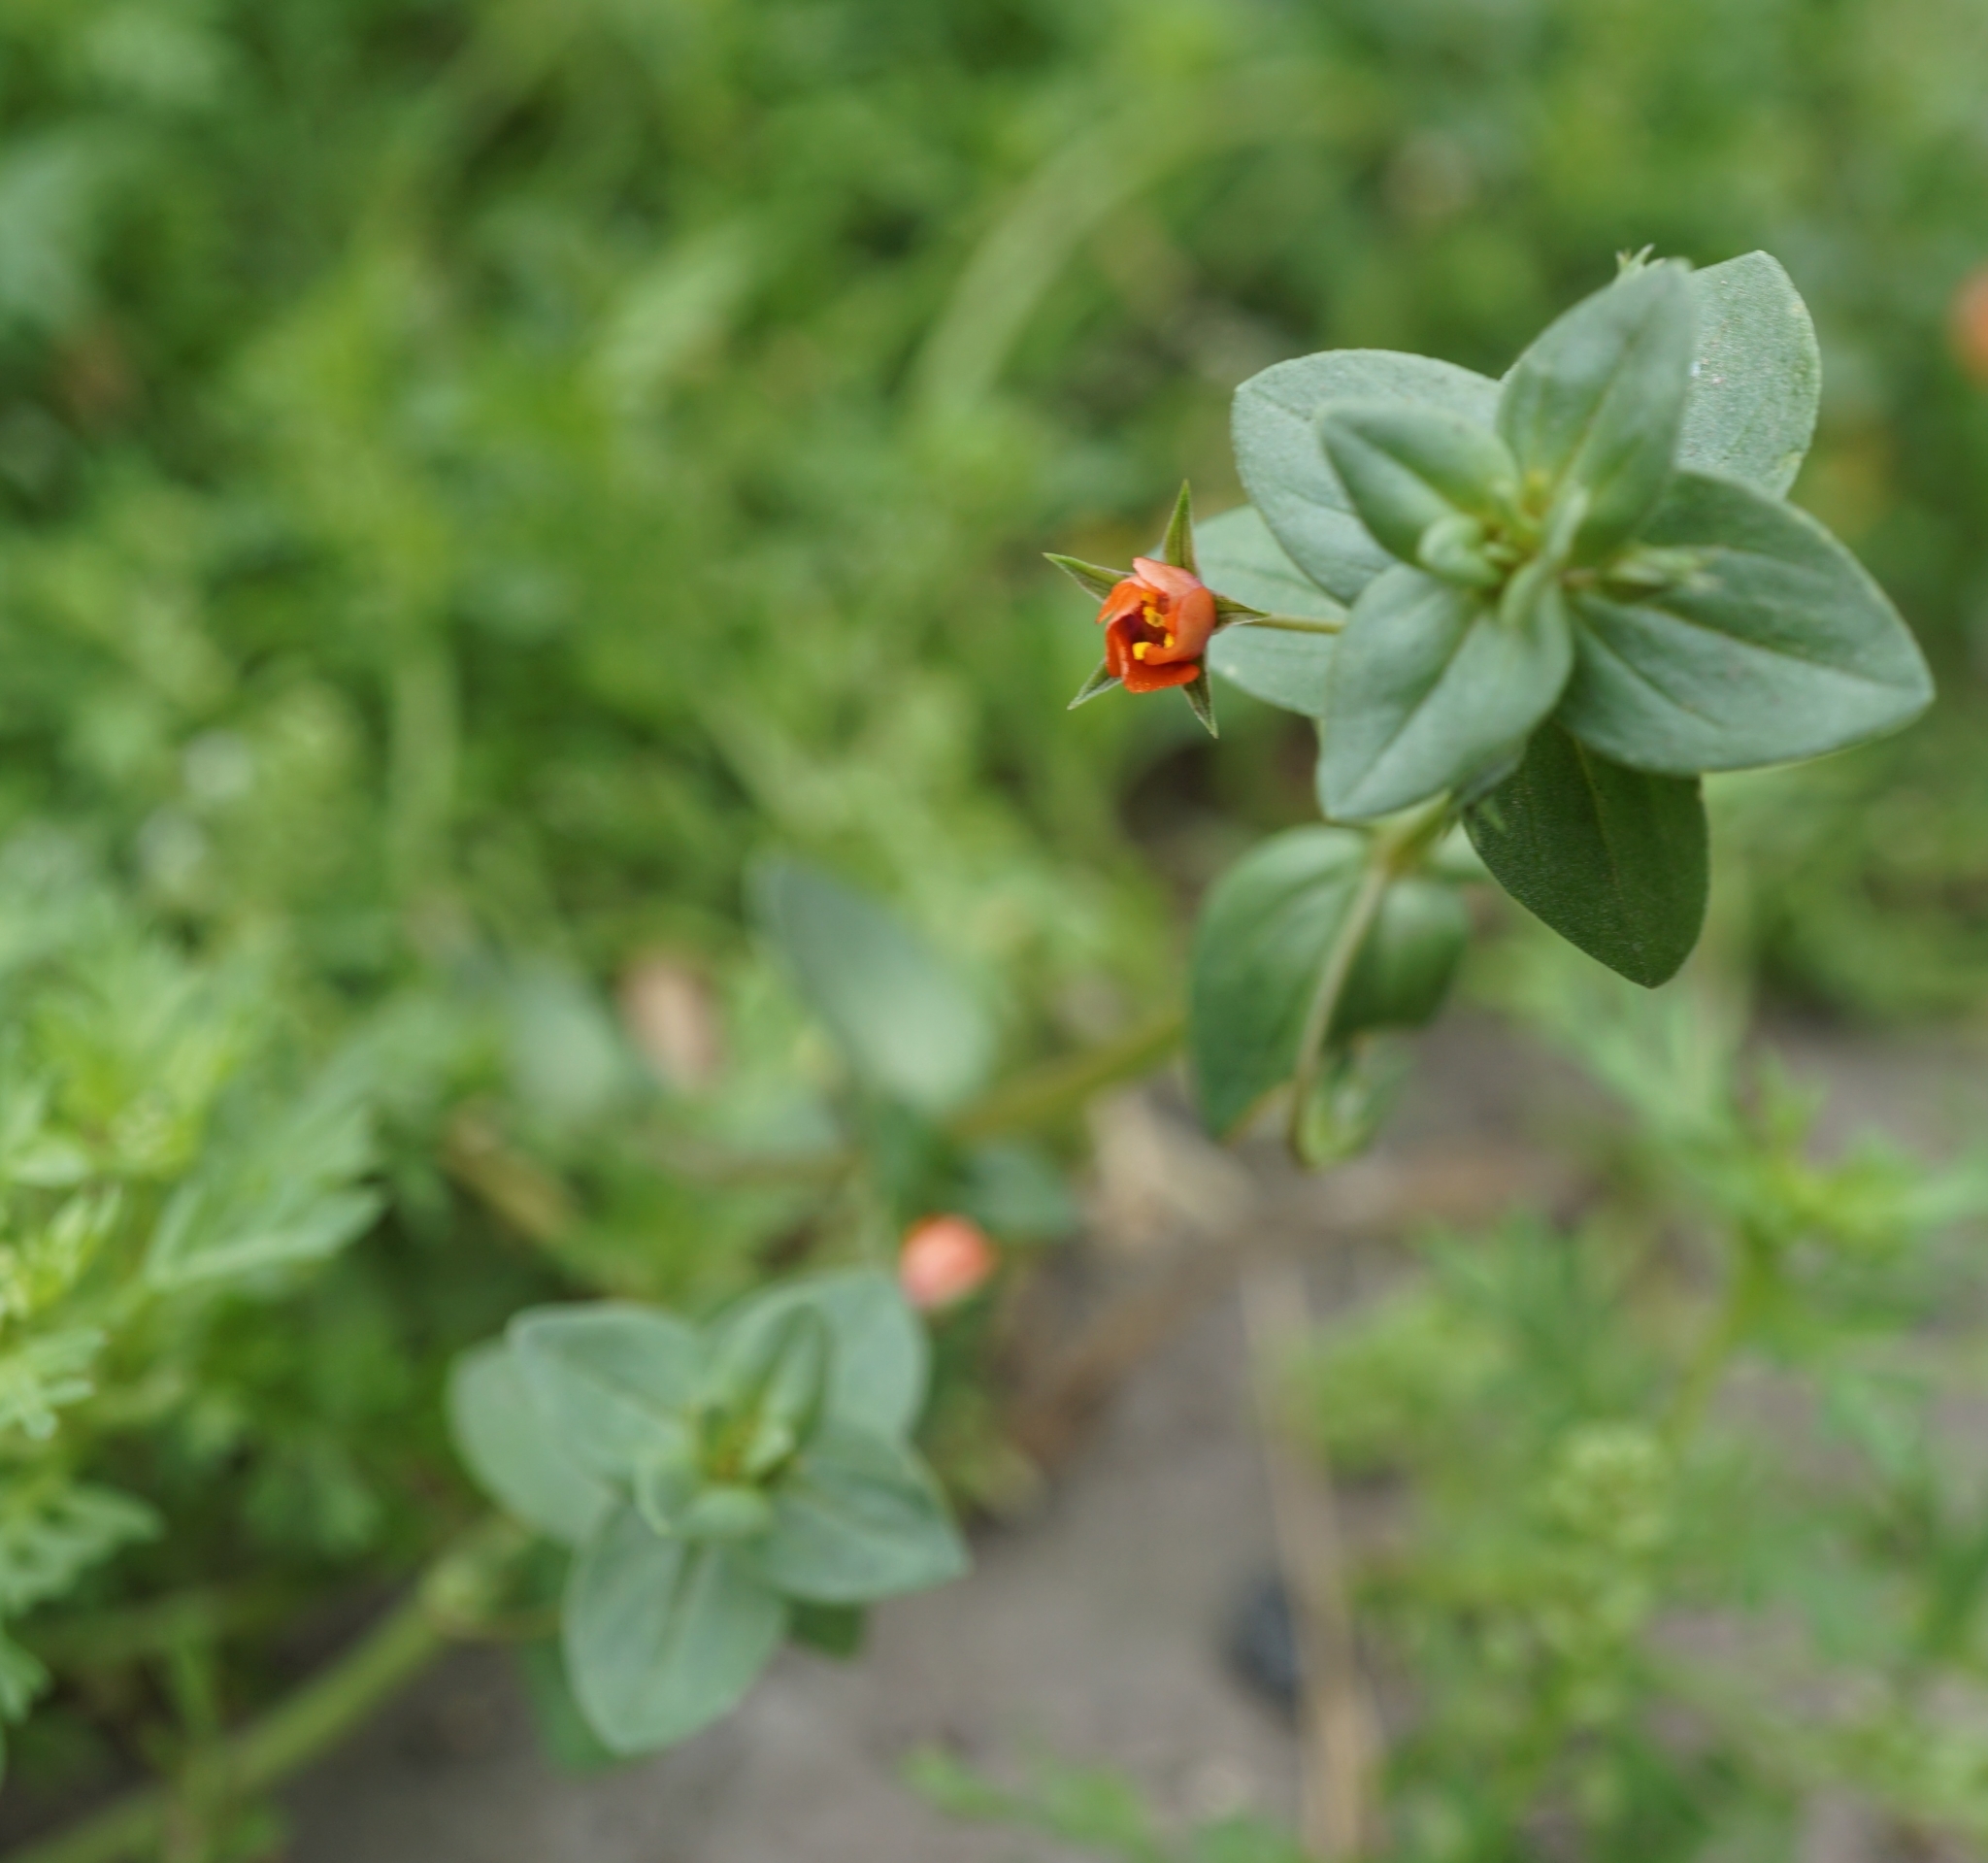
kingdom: Plantae
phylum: Tracheophyta
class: Magnoliopsida
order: Ericales
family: Primulaceae
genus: Lysimachia
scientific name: Lysimachia arvensis
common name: Scarlet pimpernel
